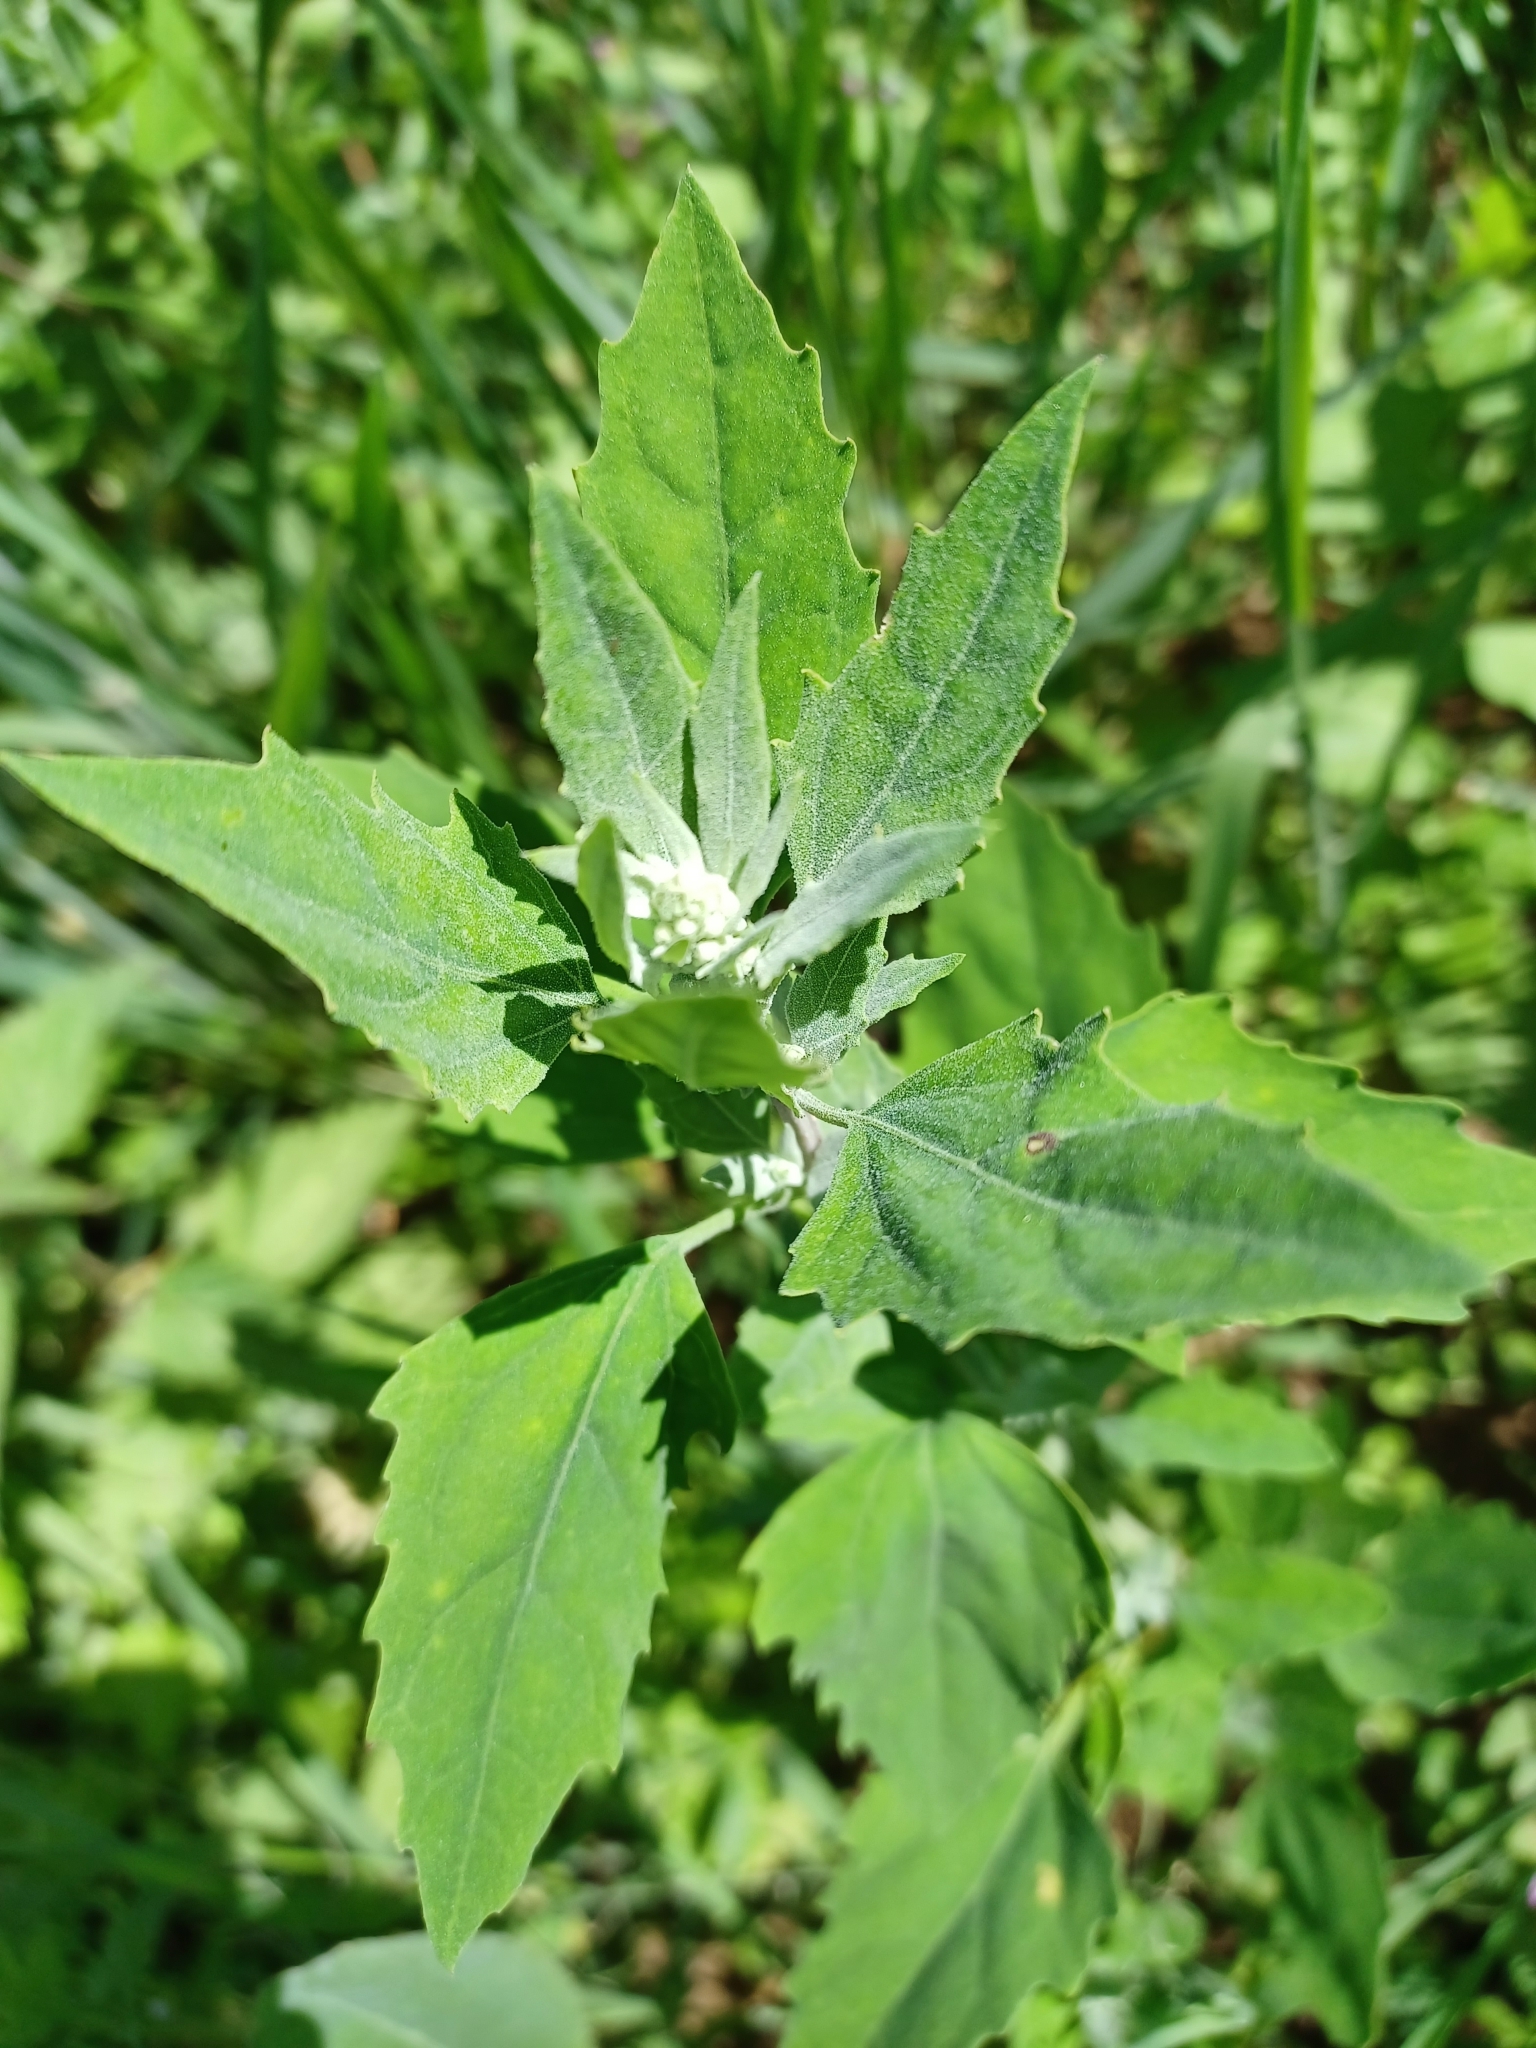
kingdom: Plantae
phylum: Tracheophyta
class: Magnoliopsida
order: Caryophyllales
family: Amaranthaceae
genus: Chenopodium
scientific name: Chenopodium album
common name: Fat-hen
